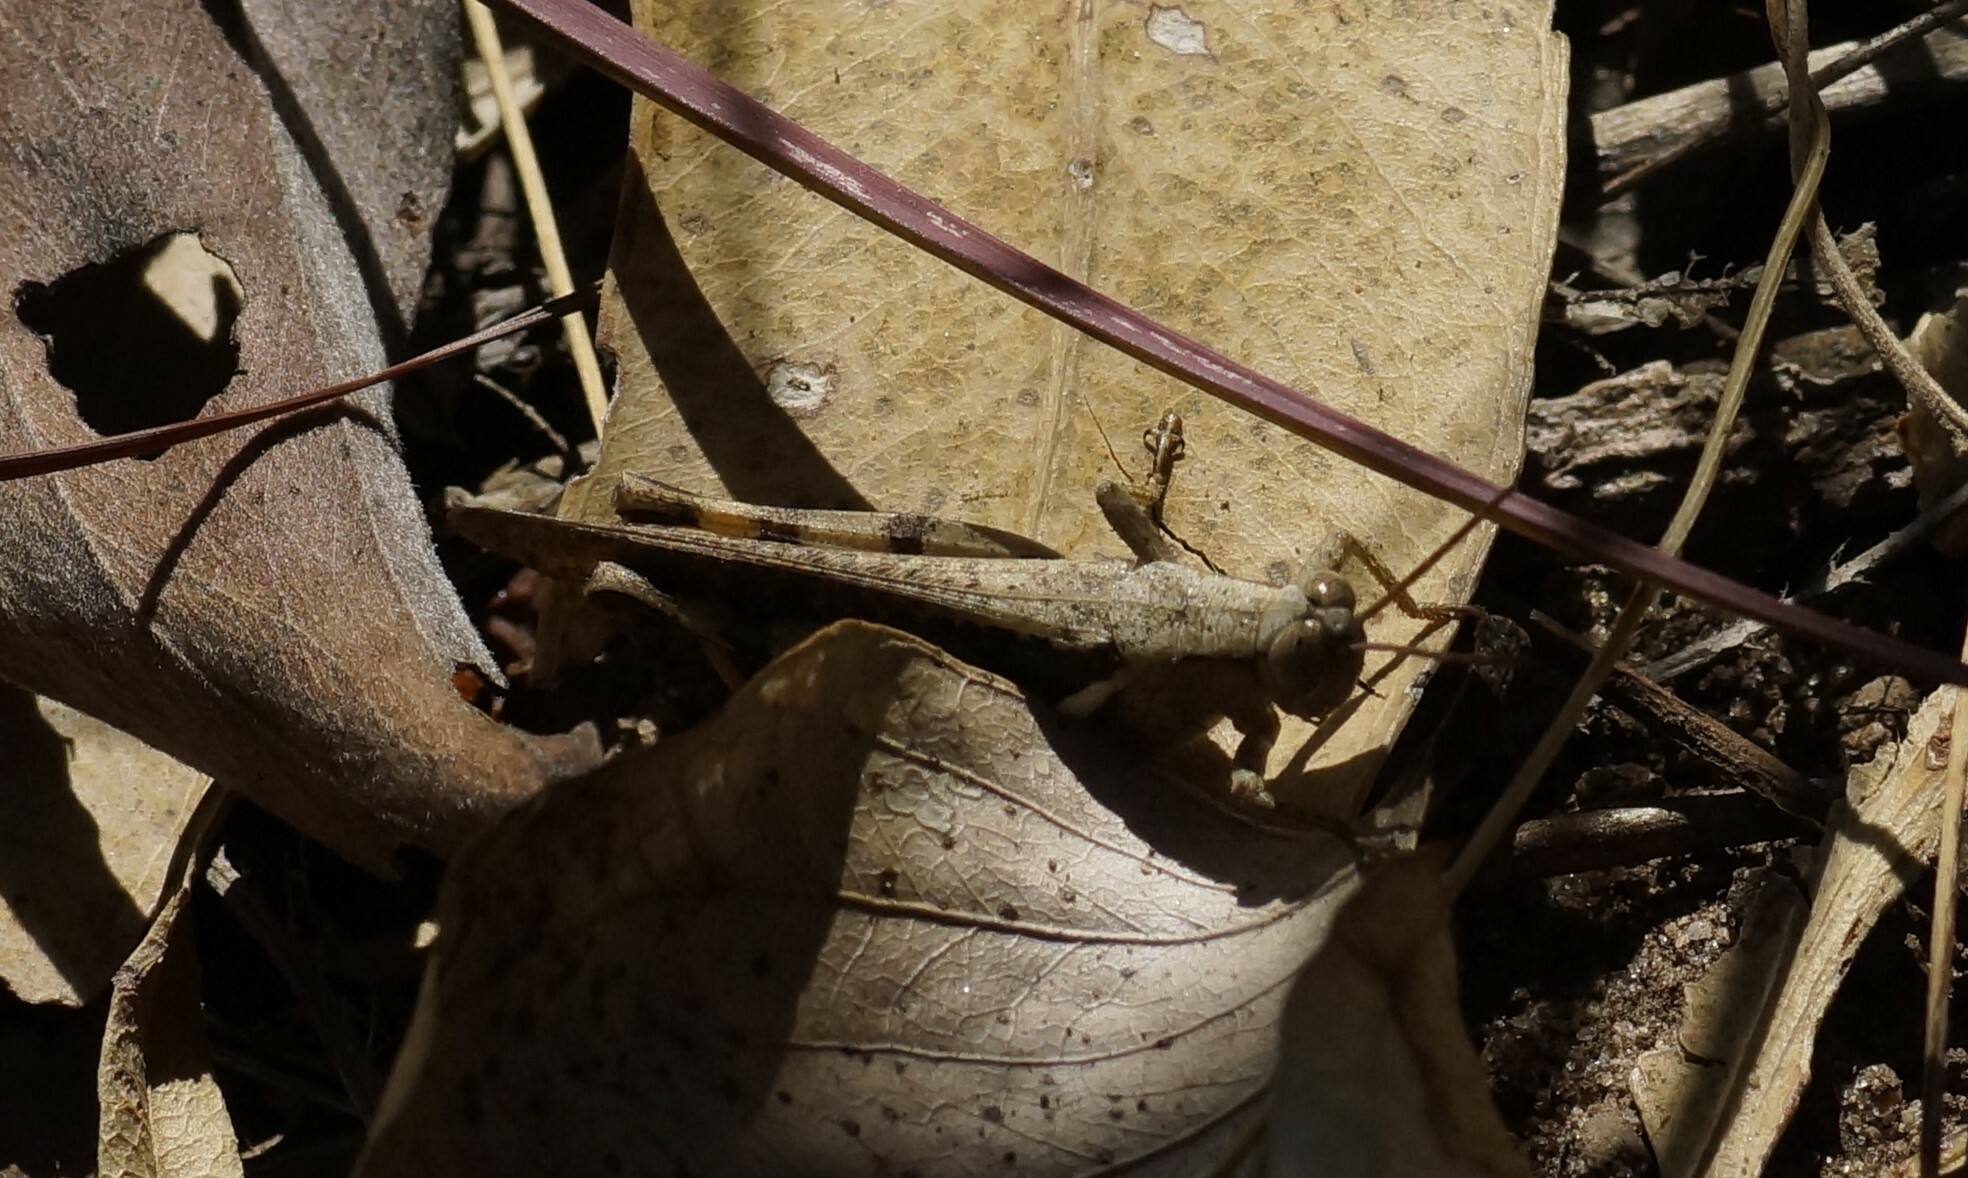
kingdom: Animalia
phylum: Arthropoda
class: Insecta
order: Orthoptera
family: Acrididae
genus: Stenocatantops
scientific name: Stenocatantops angustifrons
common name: Common tropical sharptail
